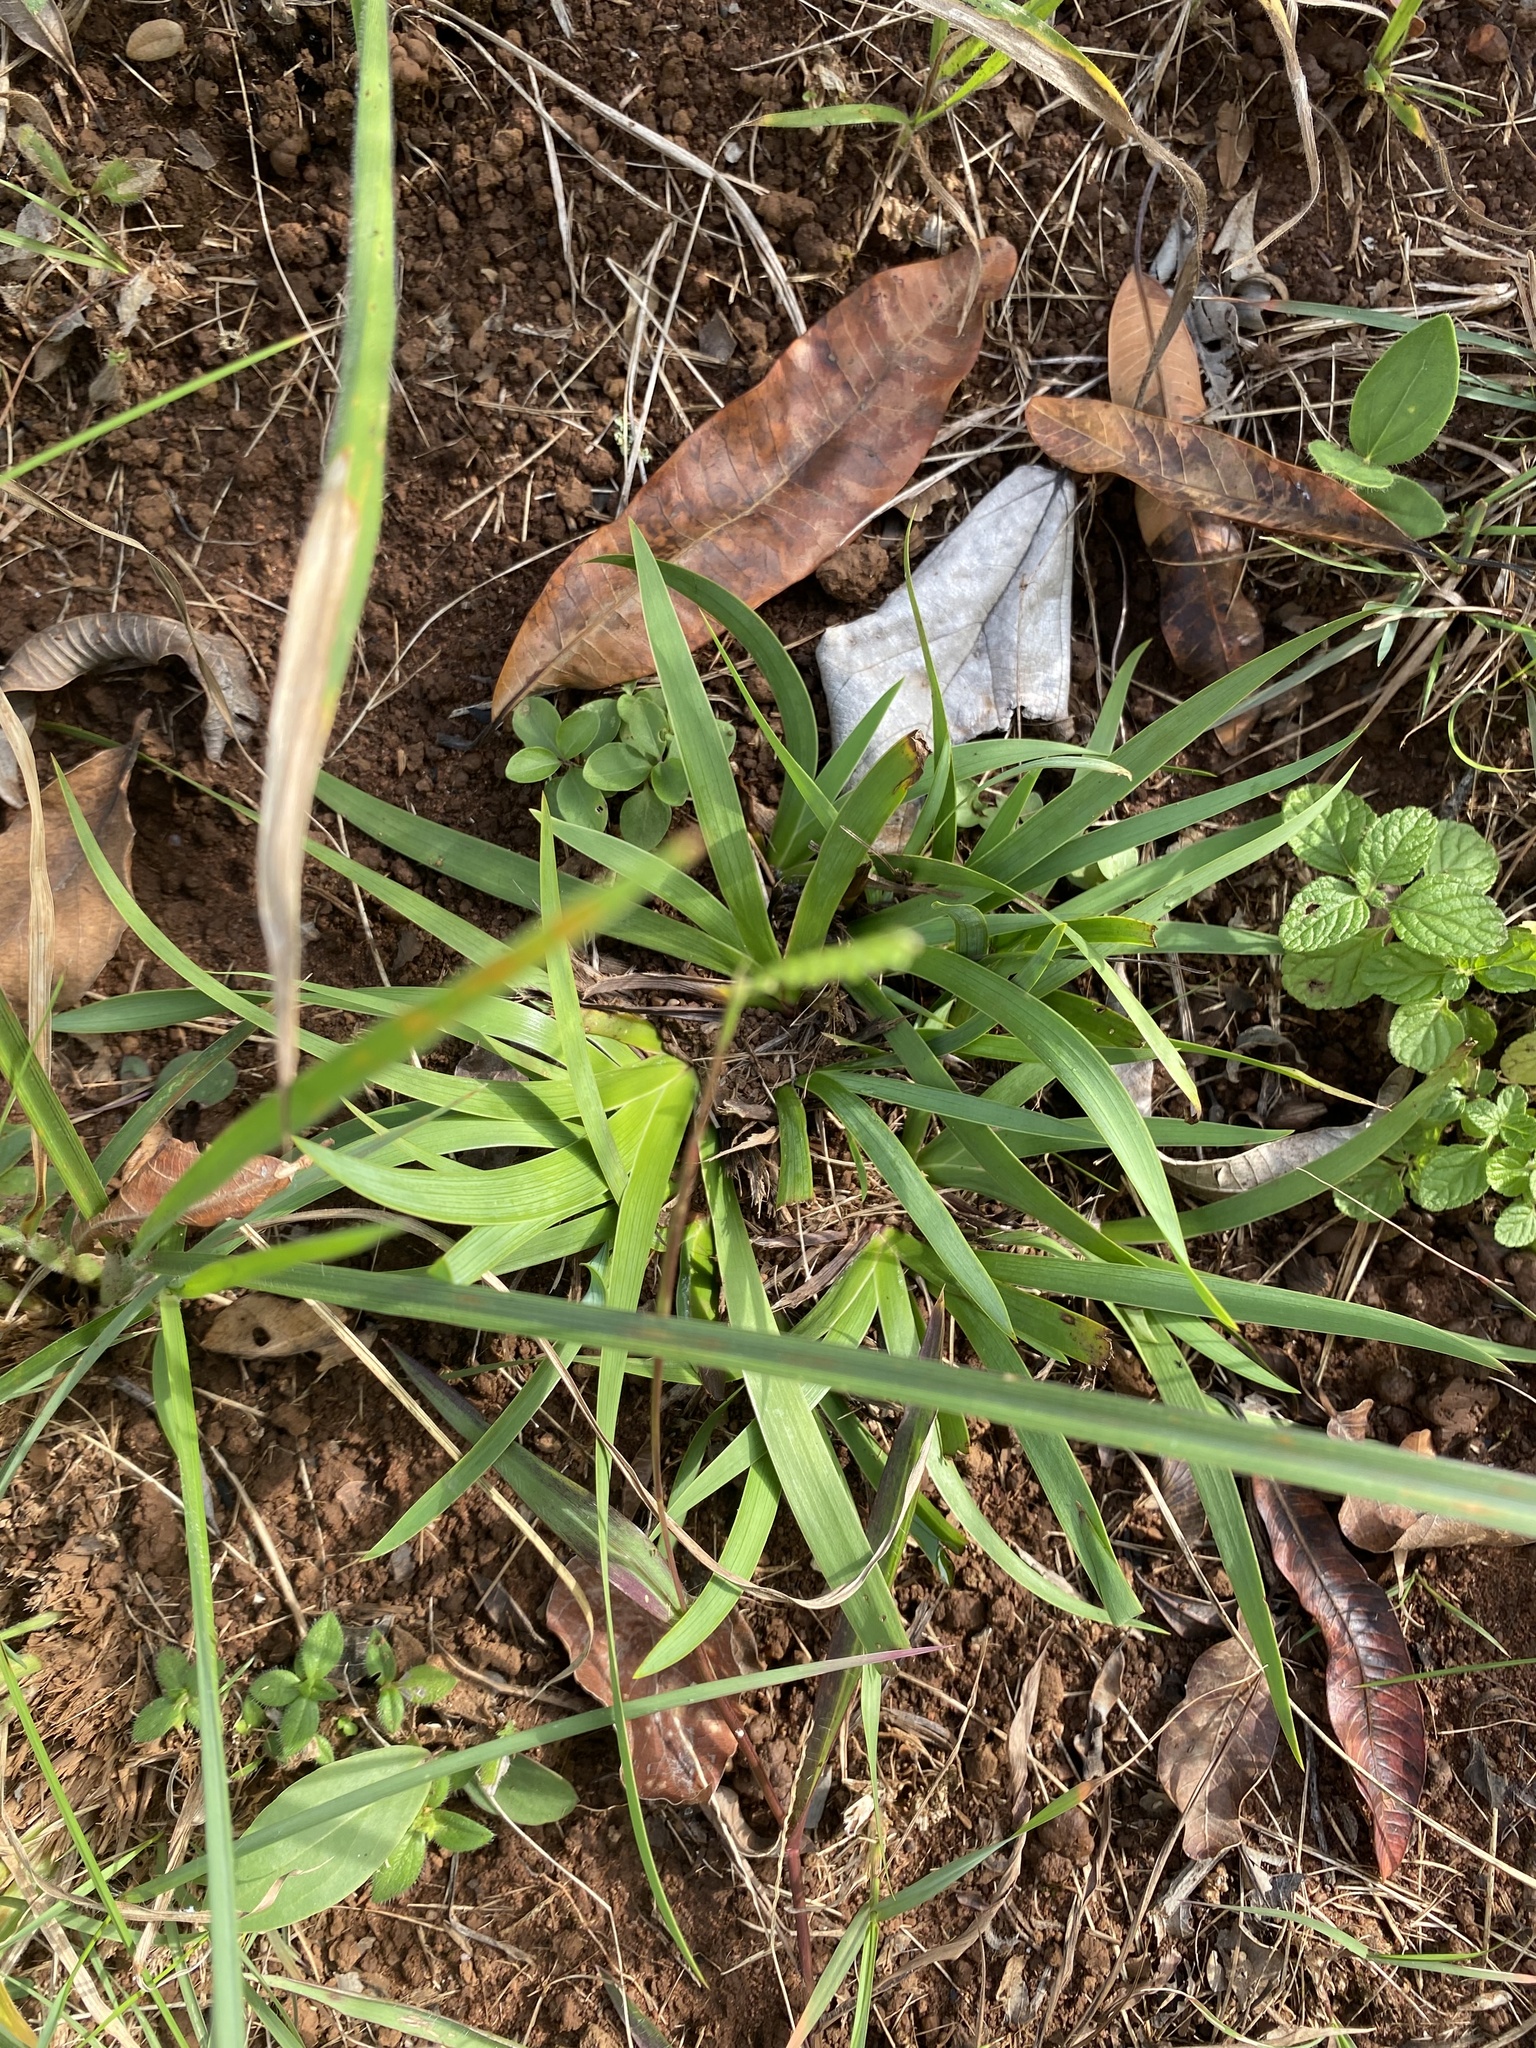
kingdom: Plantae
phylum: Tracheophyta
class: Liliopsida
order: Asparagales
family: Iridaceae
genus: Aristea
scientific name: Aristea abyssinica
